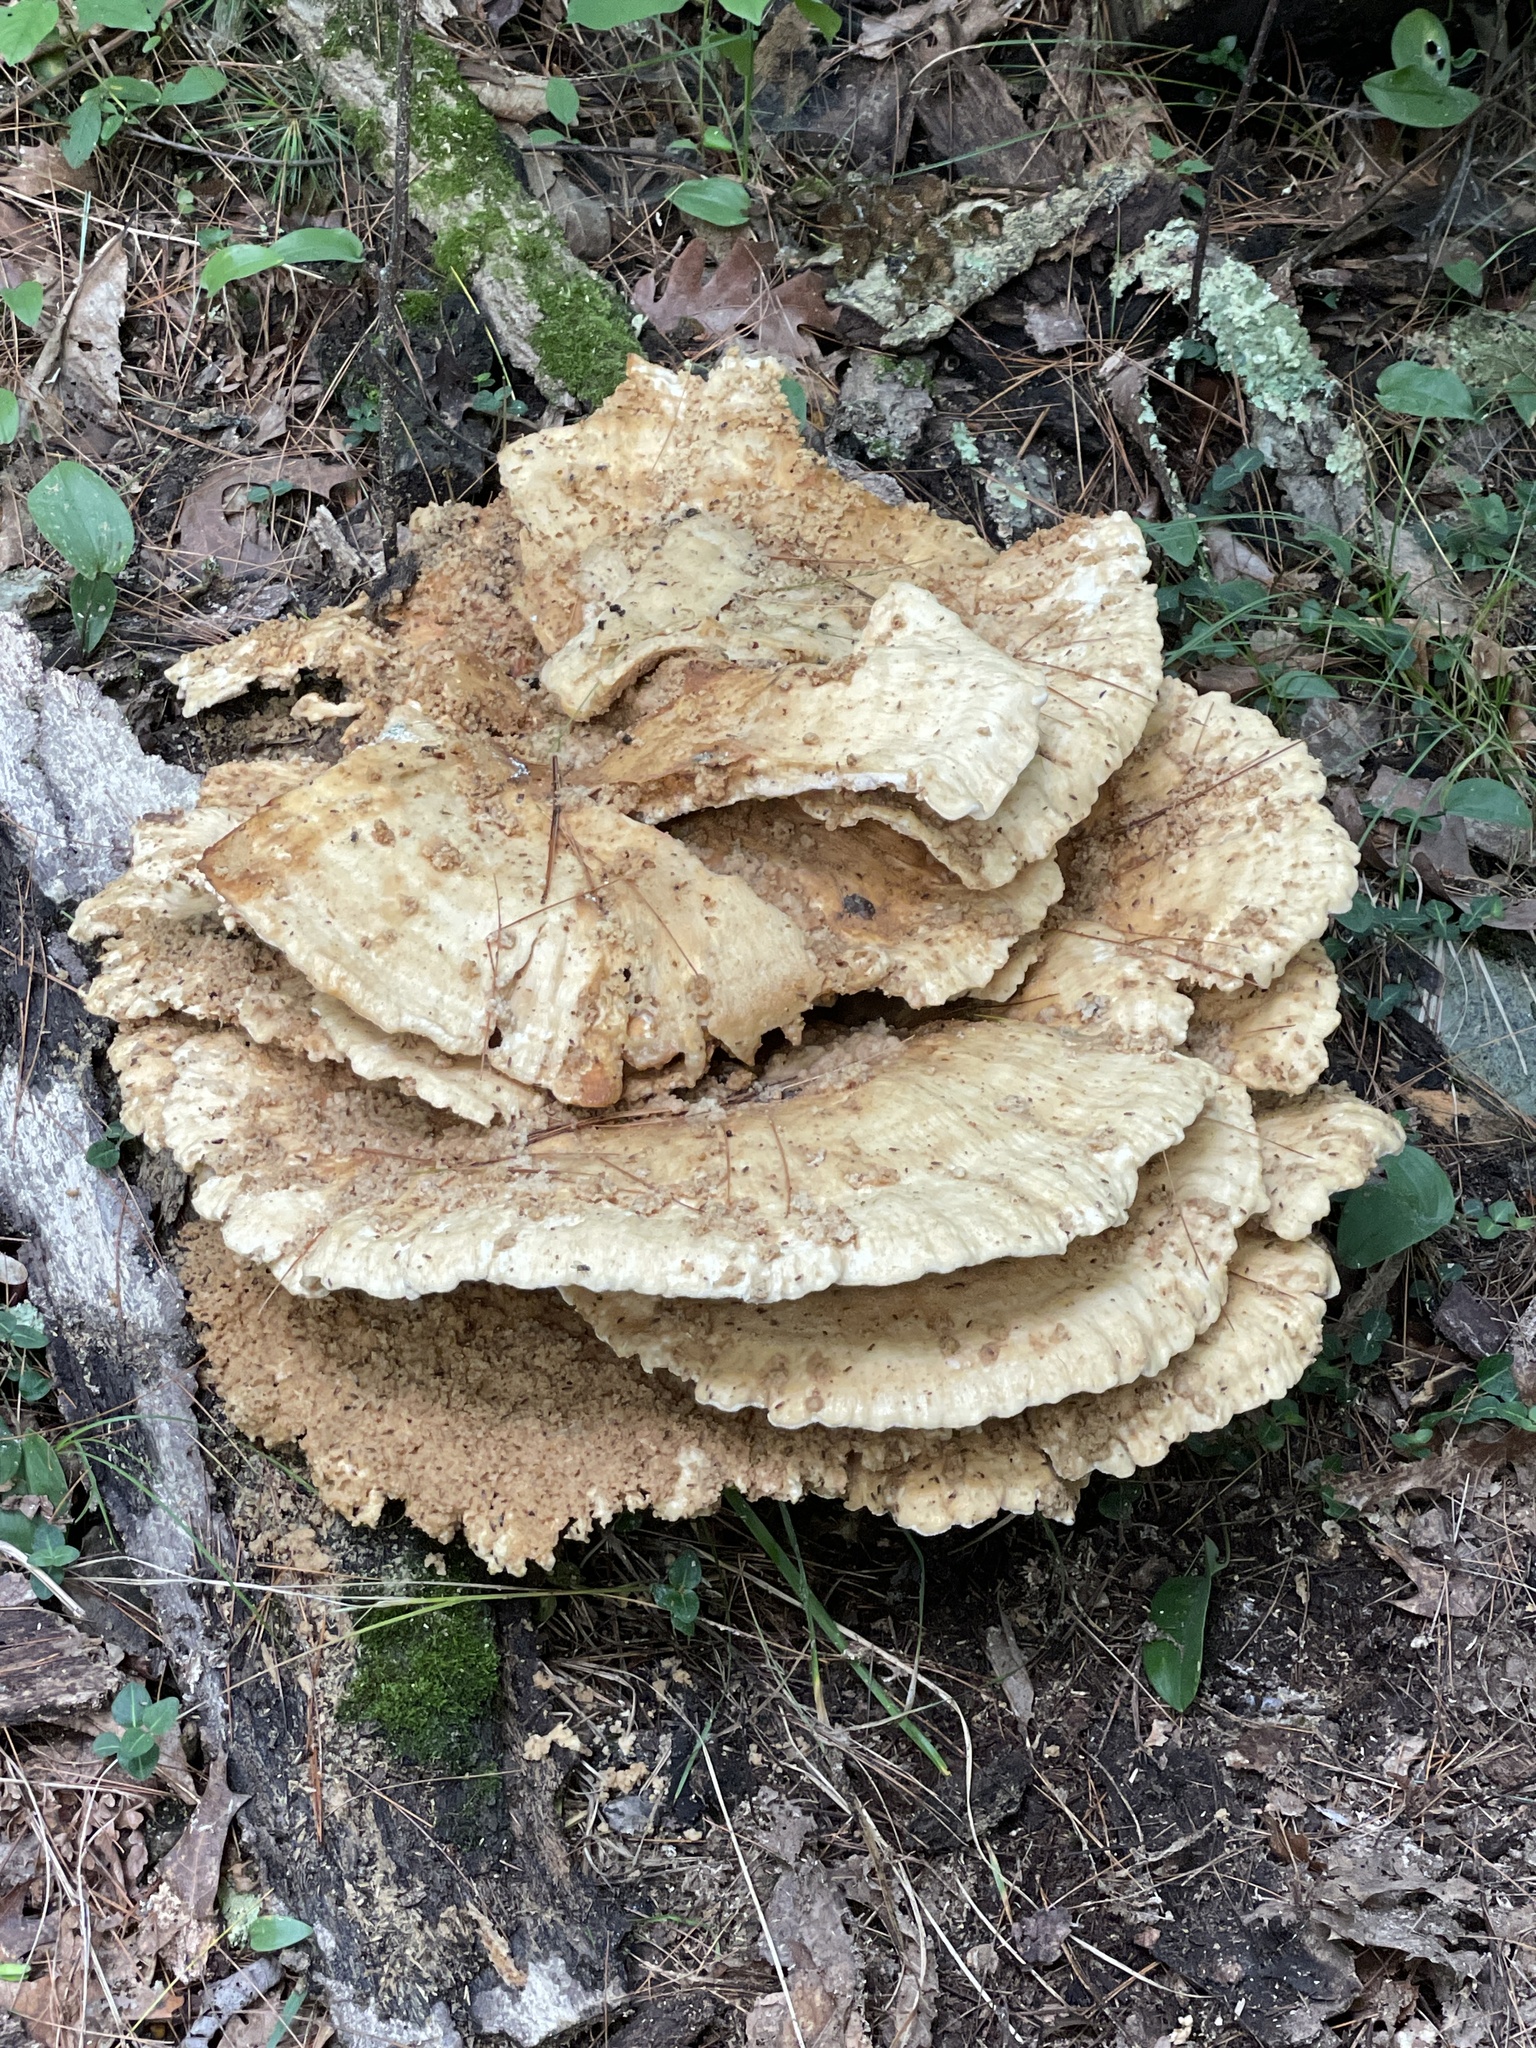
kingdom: Fungi
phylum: Basidiomycota
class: Agaricomycetes
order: Russulales
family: Bondarzewiaceae
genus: Bondarzewia
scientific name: Bondarzewia berkeleyi
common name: Berkeley's polypore
